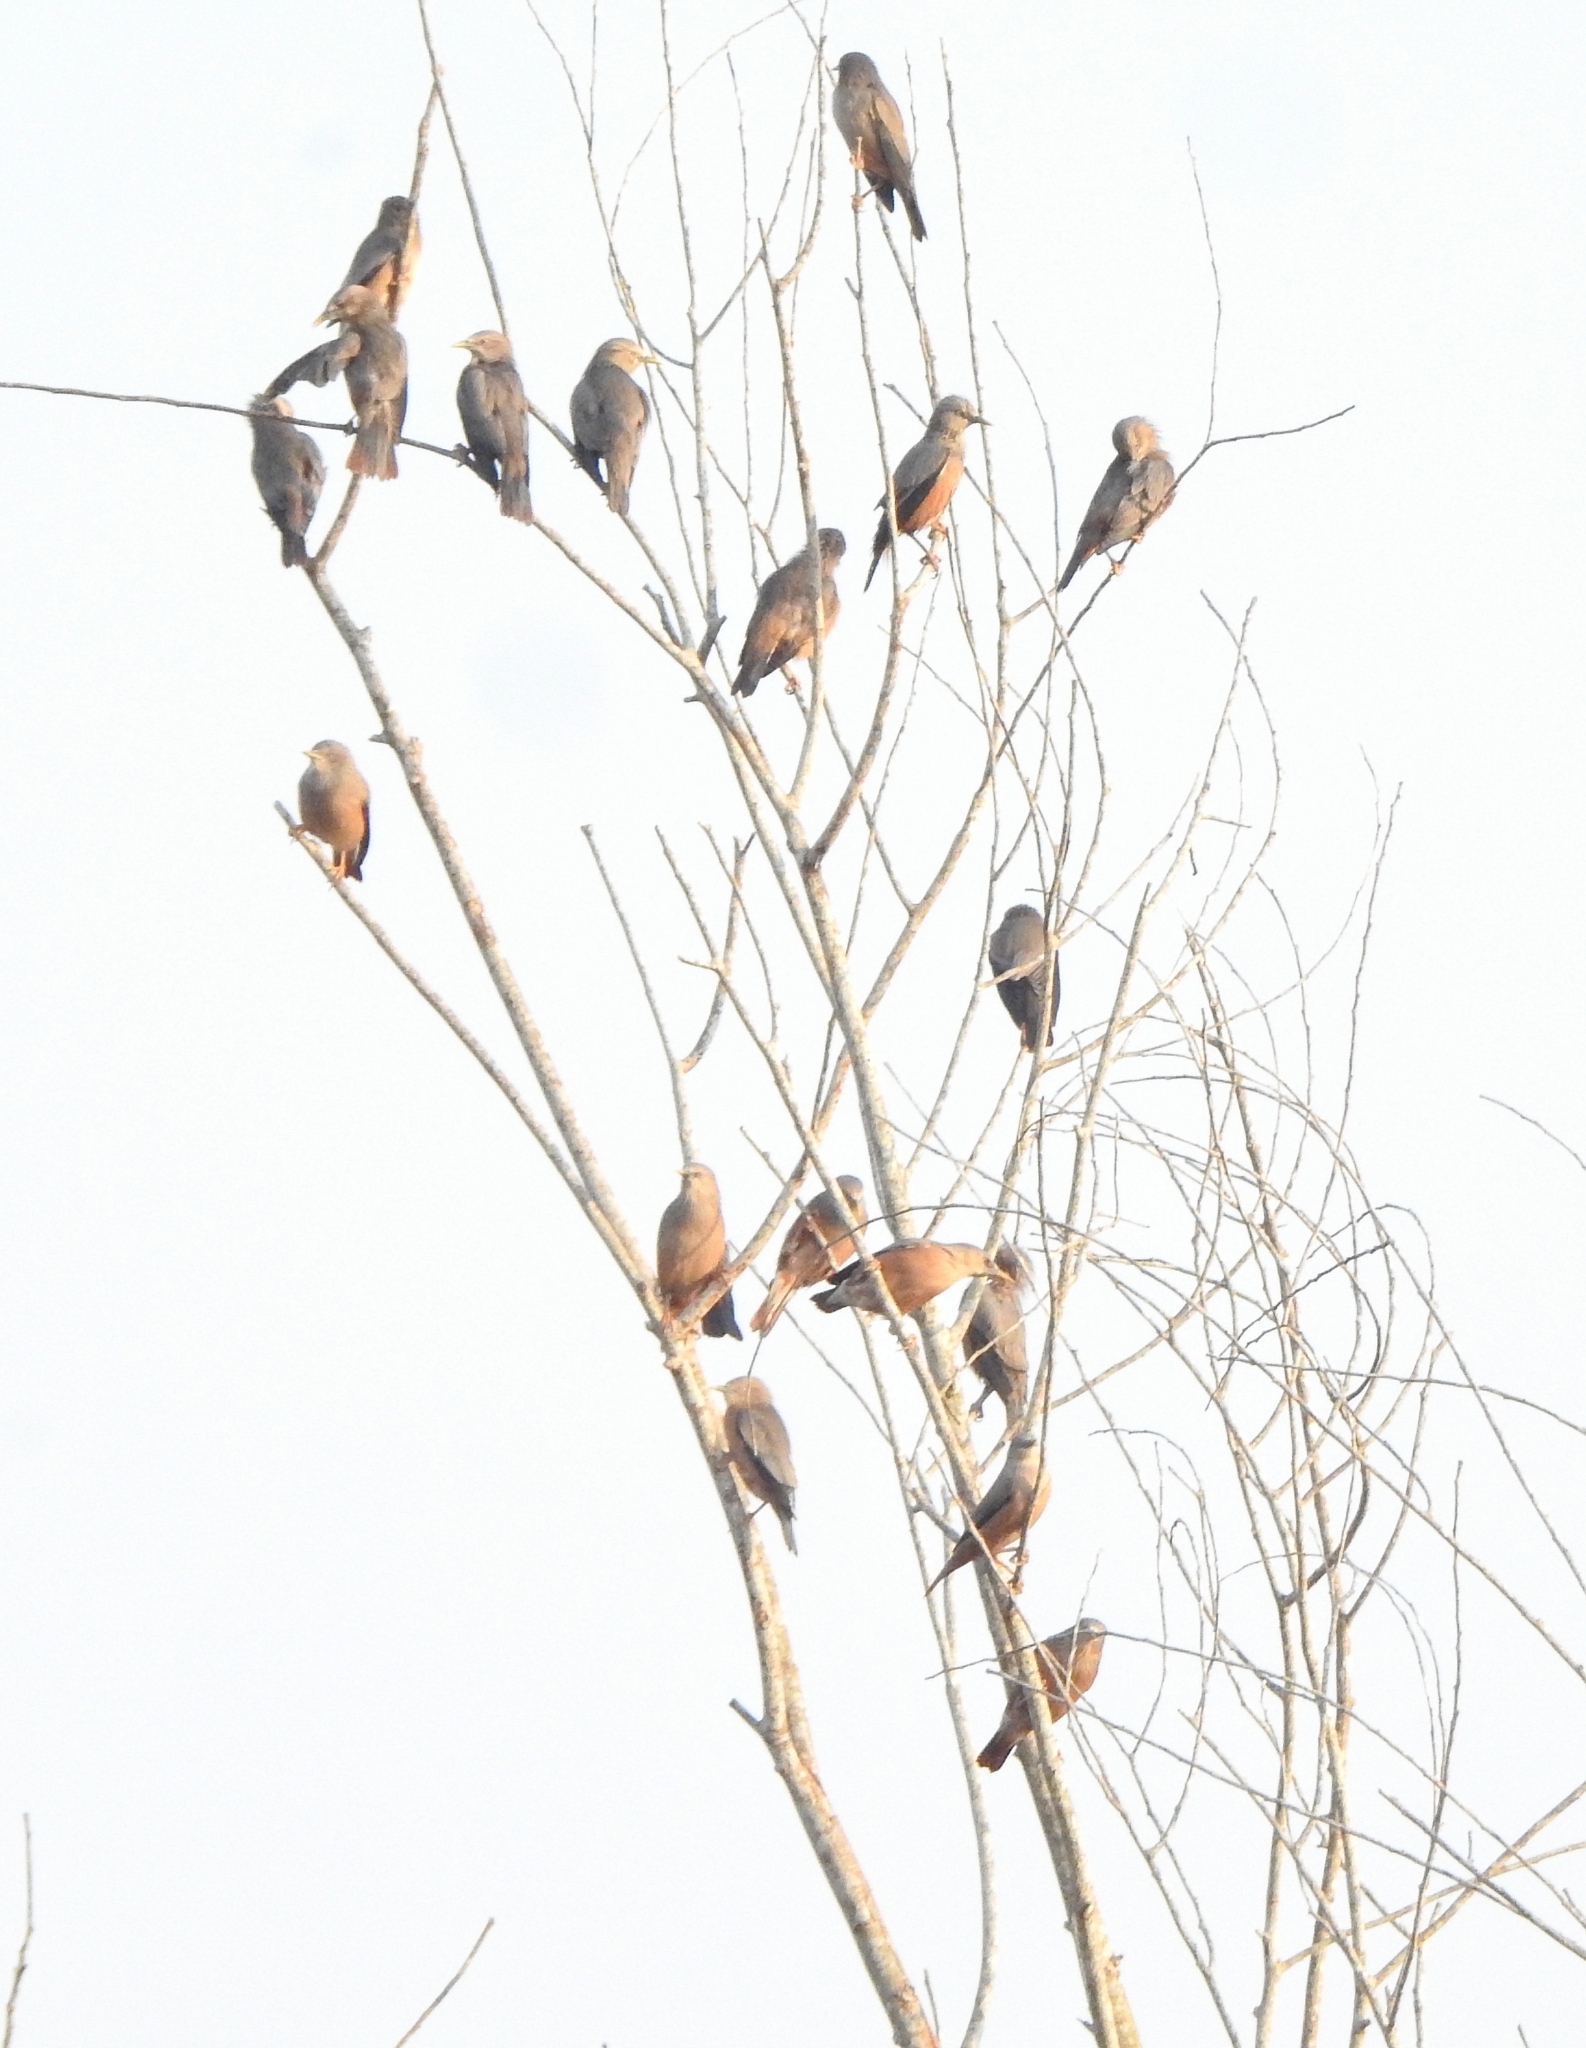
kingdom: Animalia
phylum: Chordata
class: Aves
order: Passeriformes
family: Sturnidae
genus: Sturnia
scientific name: Sturnia malabarica
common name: Chestnut-tailed starling
